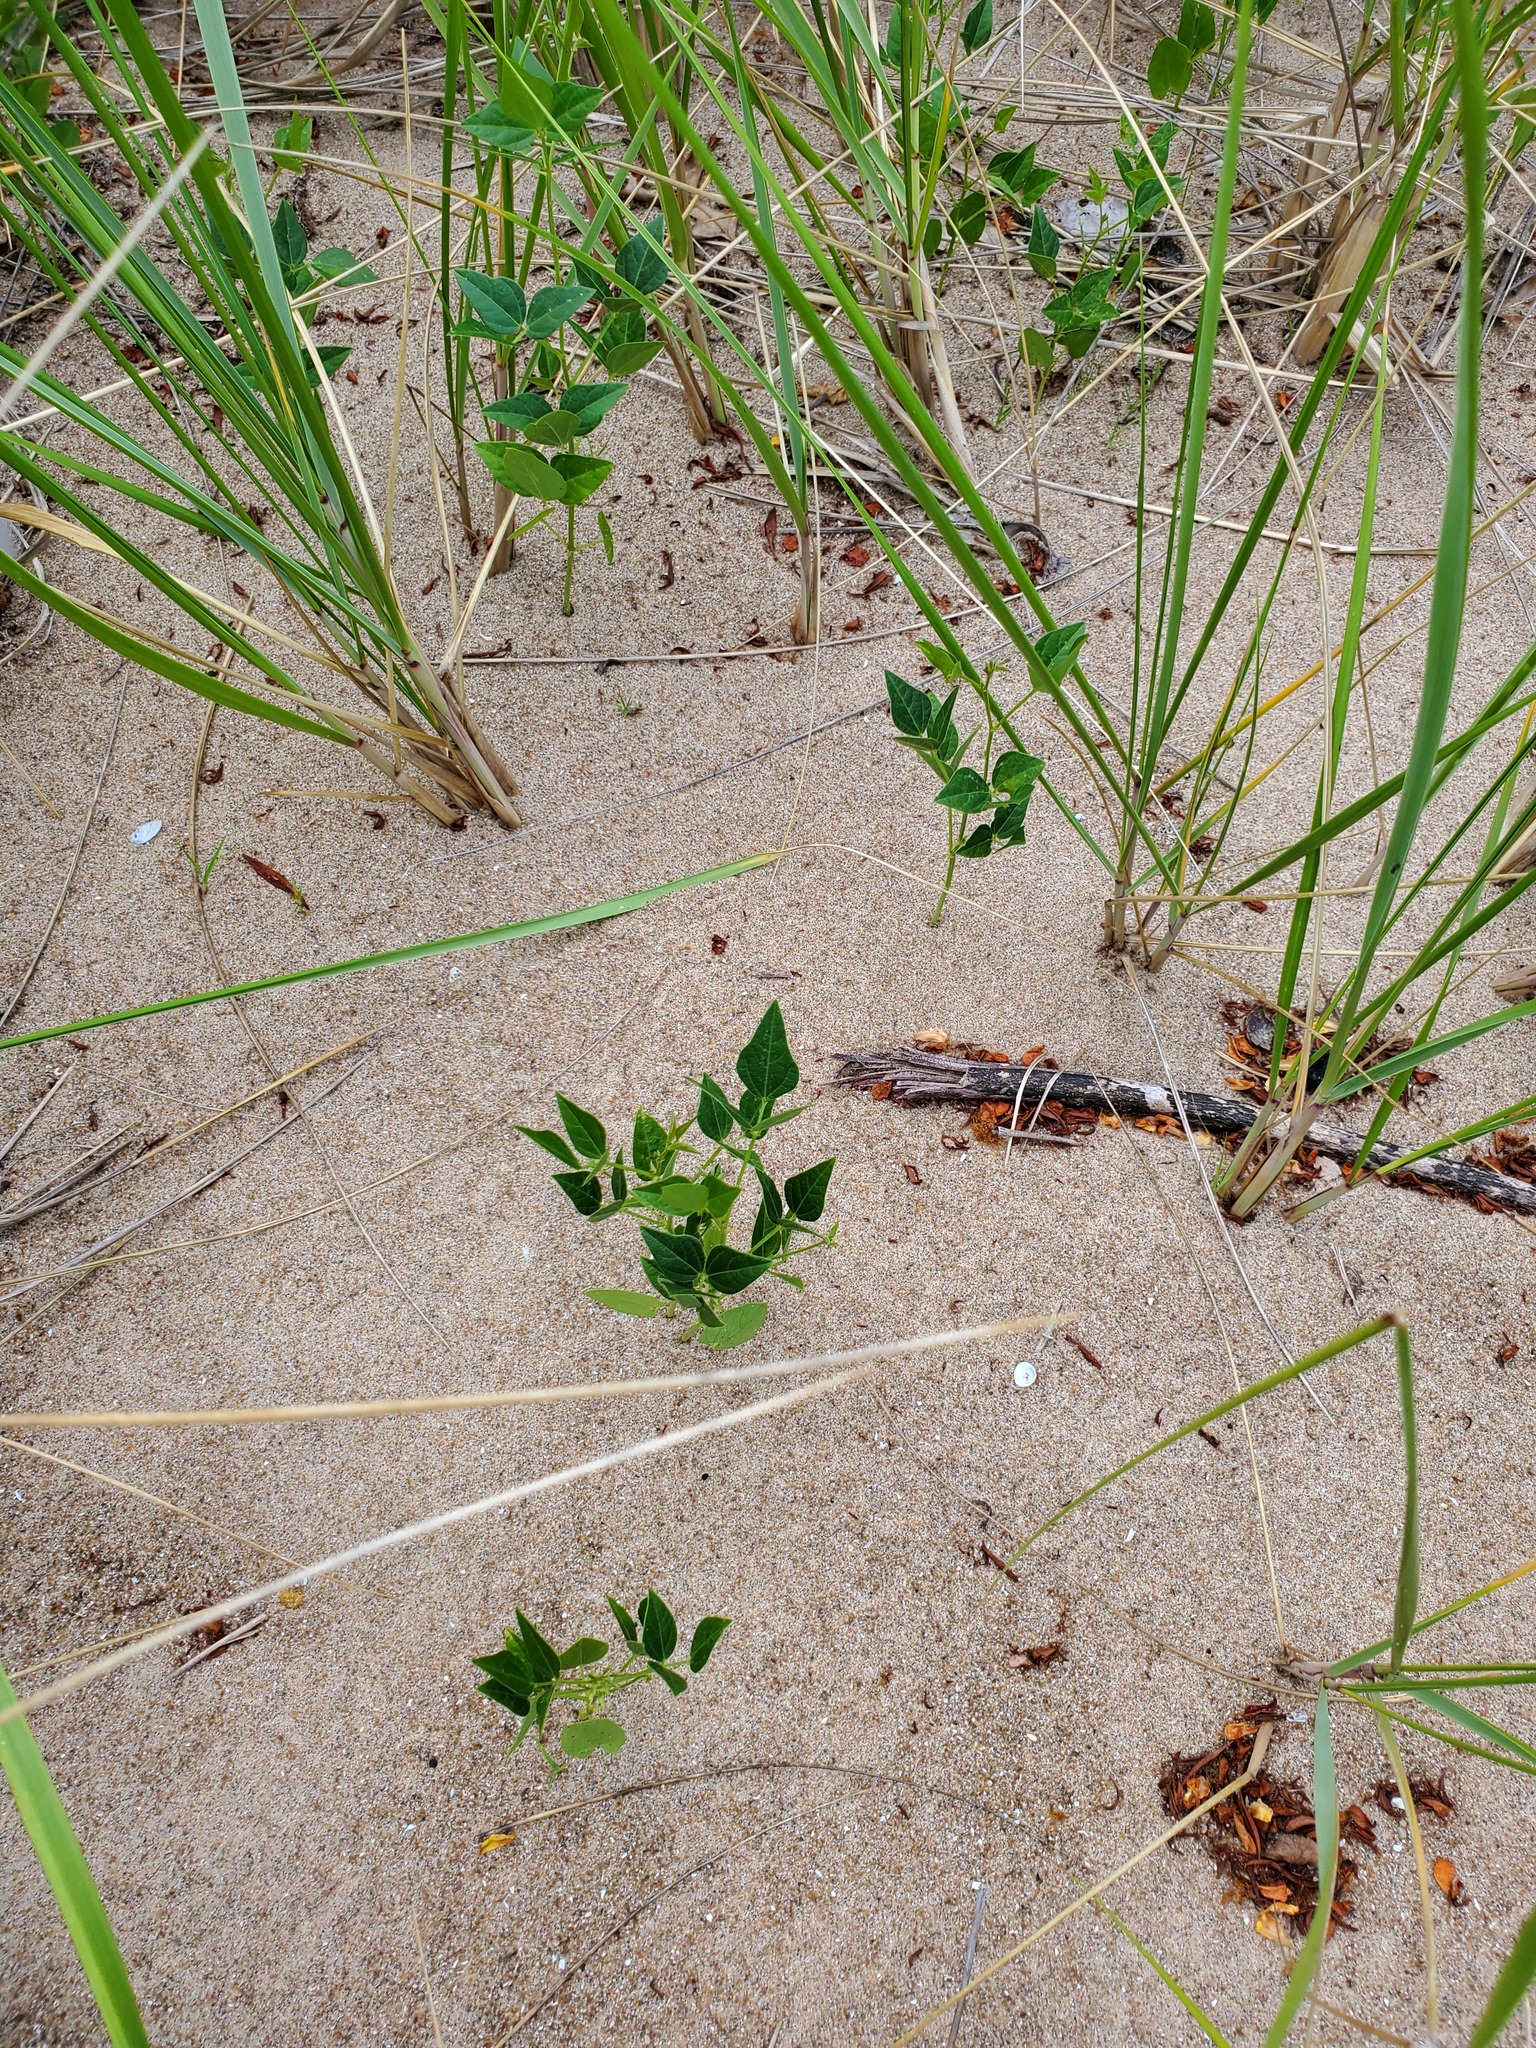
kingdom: Plantae
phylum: Tracheophyta
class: Magnoliopsida
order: Fabales
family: Fabaceae
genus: Strophostyles
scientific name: Strophostyles helvola
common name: Trailing wild bean
